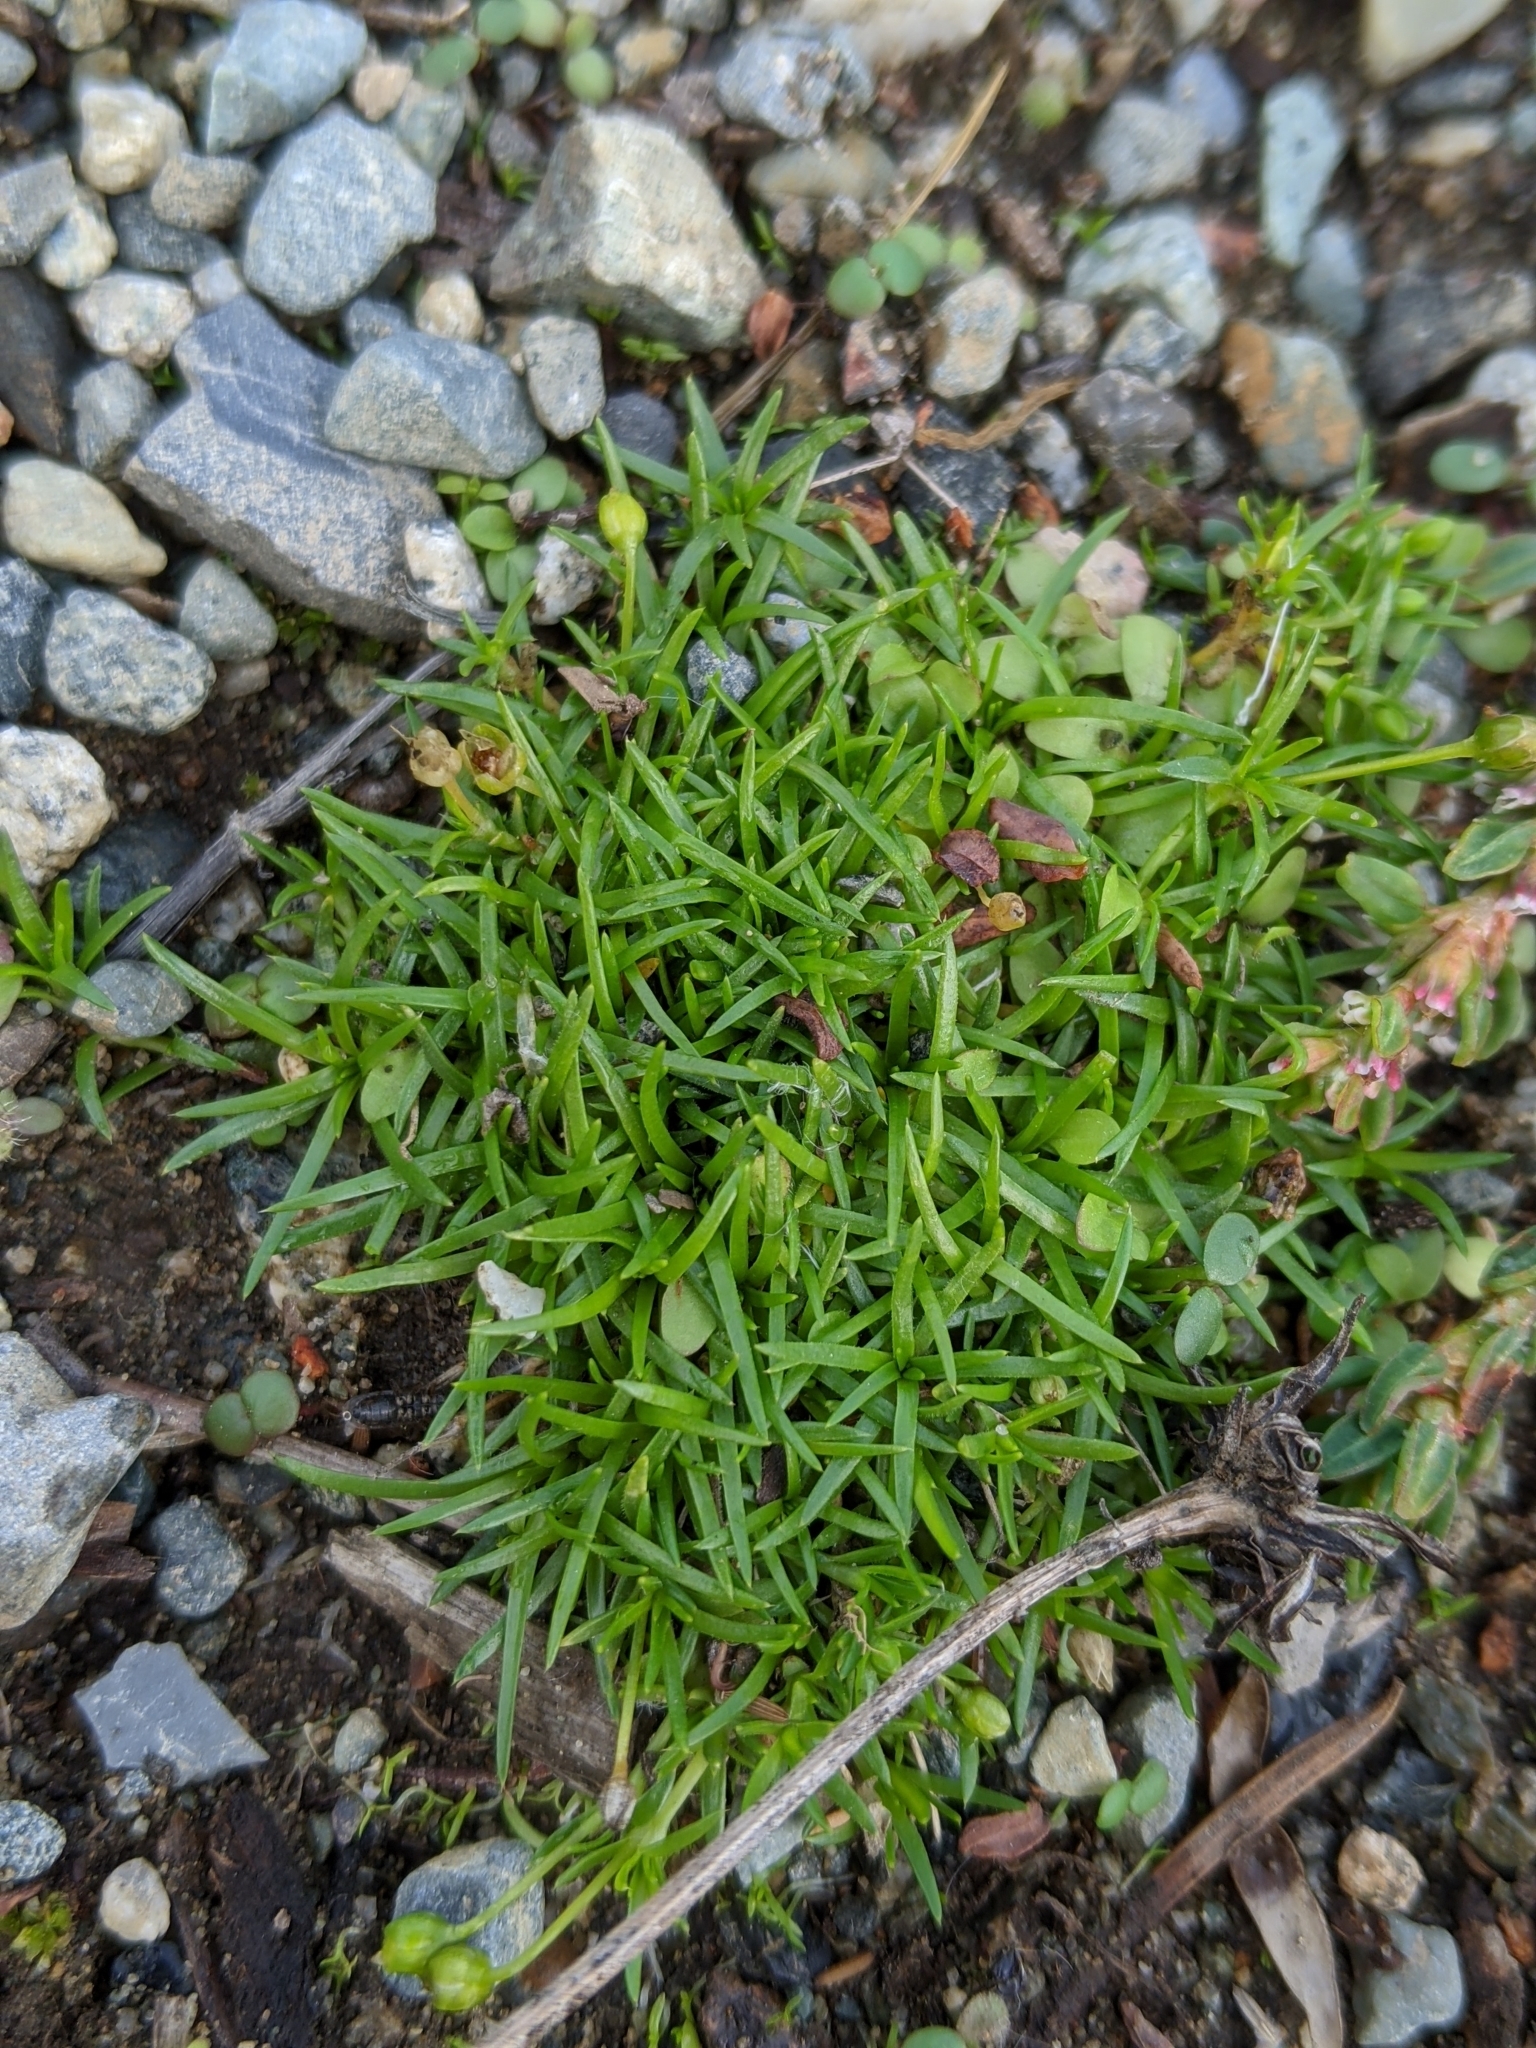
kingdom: Plantae
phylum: Tracheophyta
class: Magnoliopsida
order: Caryophyllales
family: Caryophyllaceae
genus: Sagina
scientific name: Sagina procumbens
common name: Procumbent pearlwort
